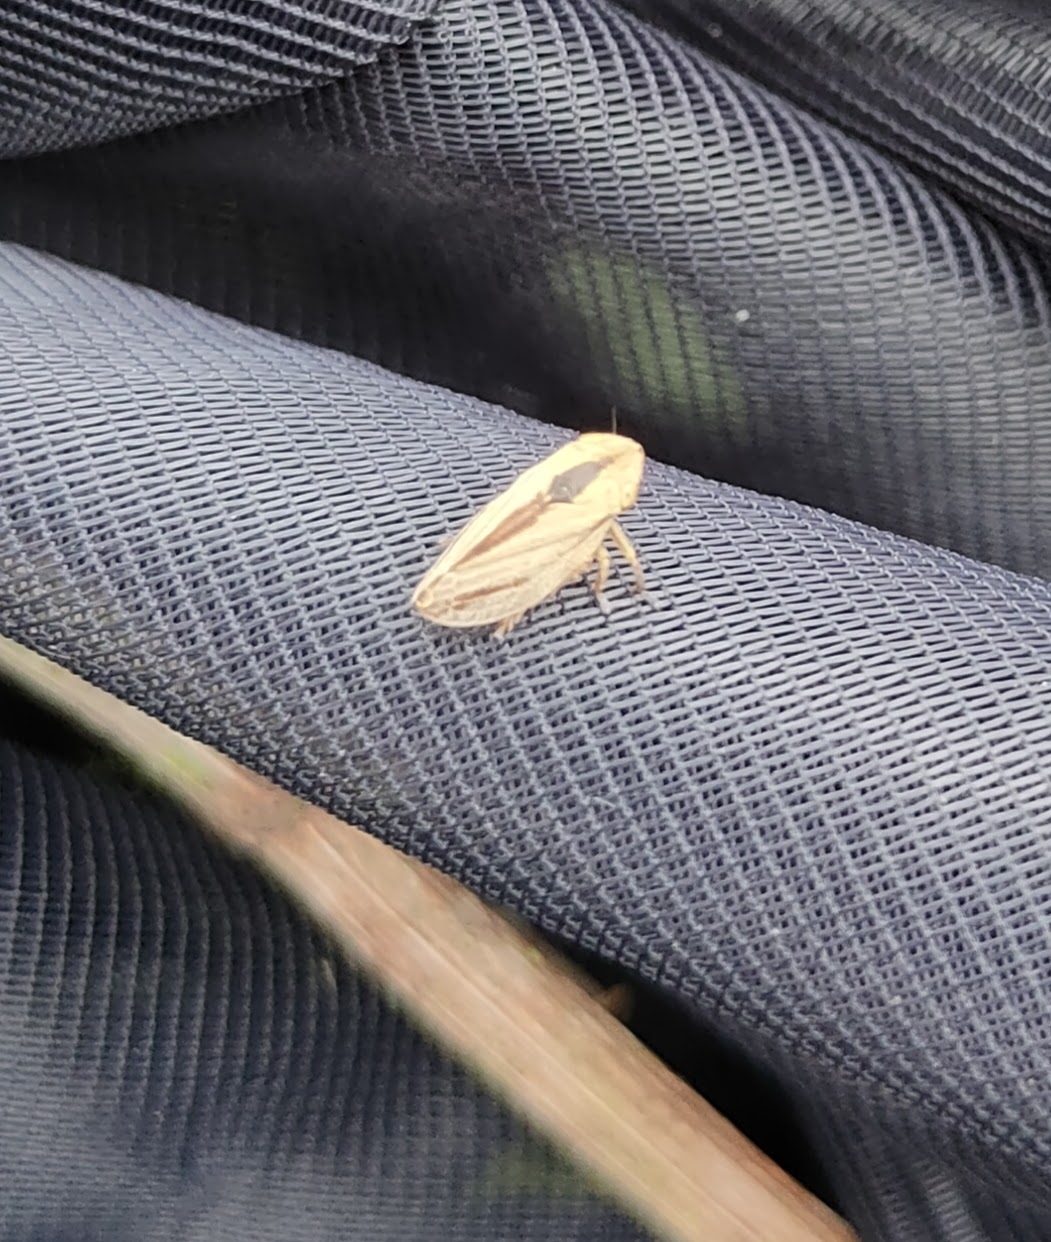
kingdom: Animalia
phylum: Arthropoda
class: Insecta
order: Hemiptera
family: Aphrophoridae
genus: Philaenus
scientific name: Philaenus spumarius
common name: Meadow spittlebug
